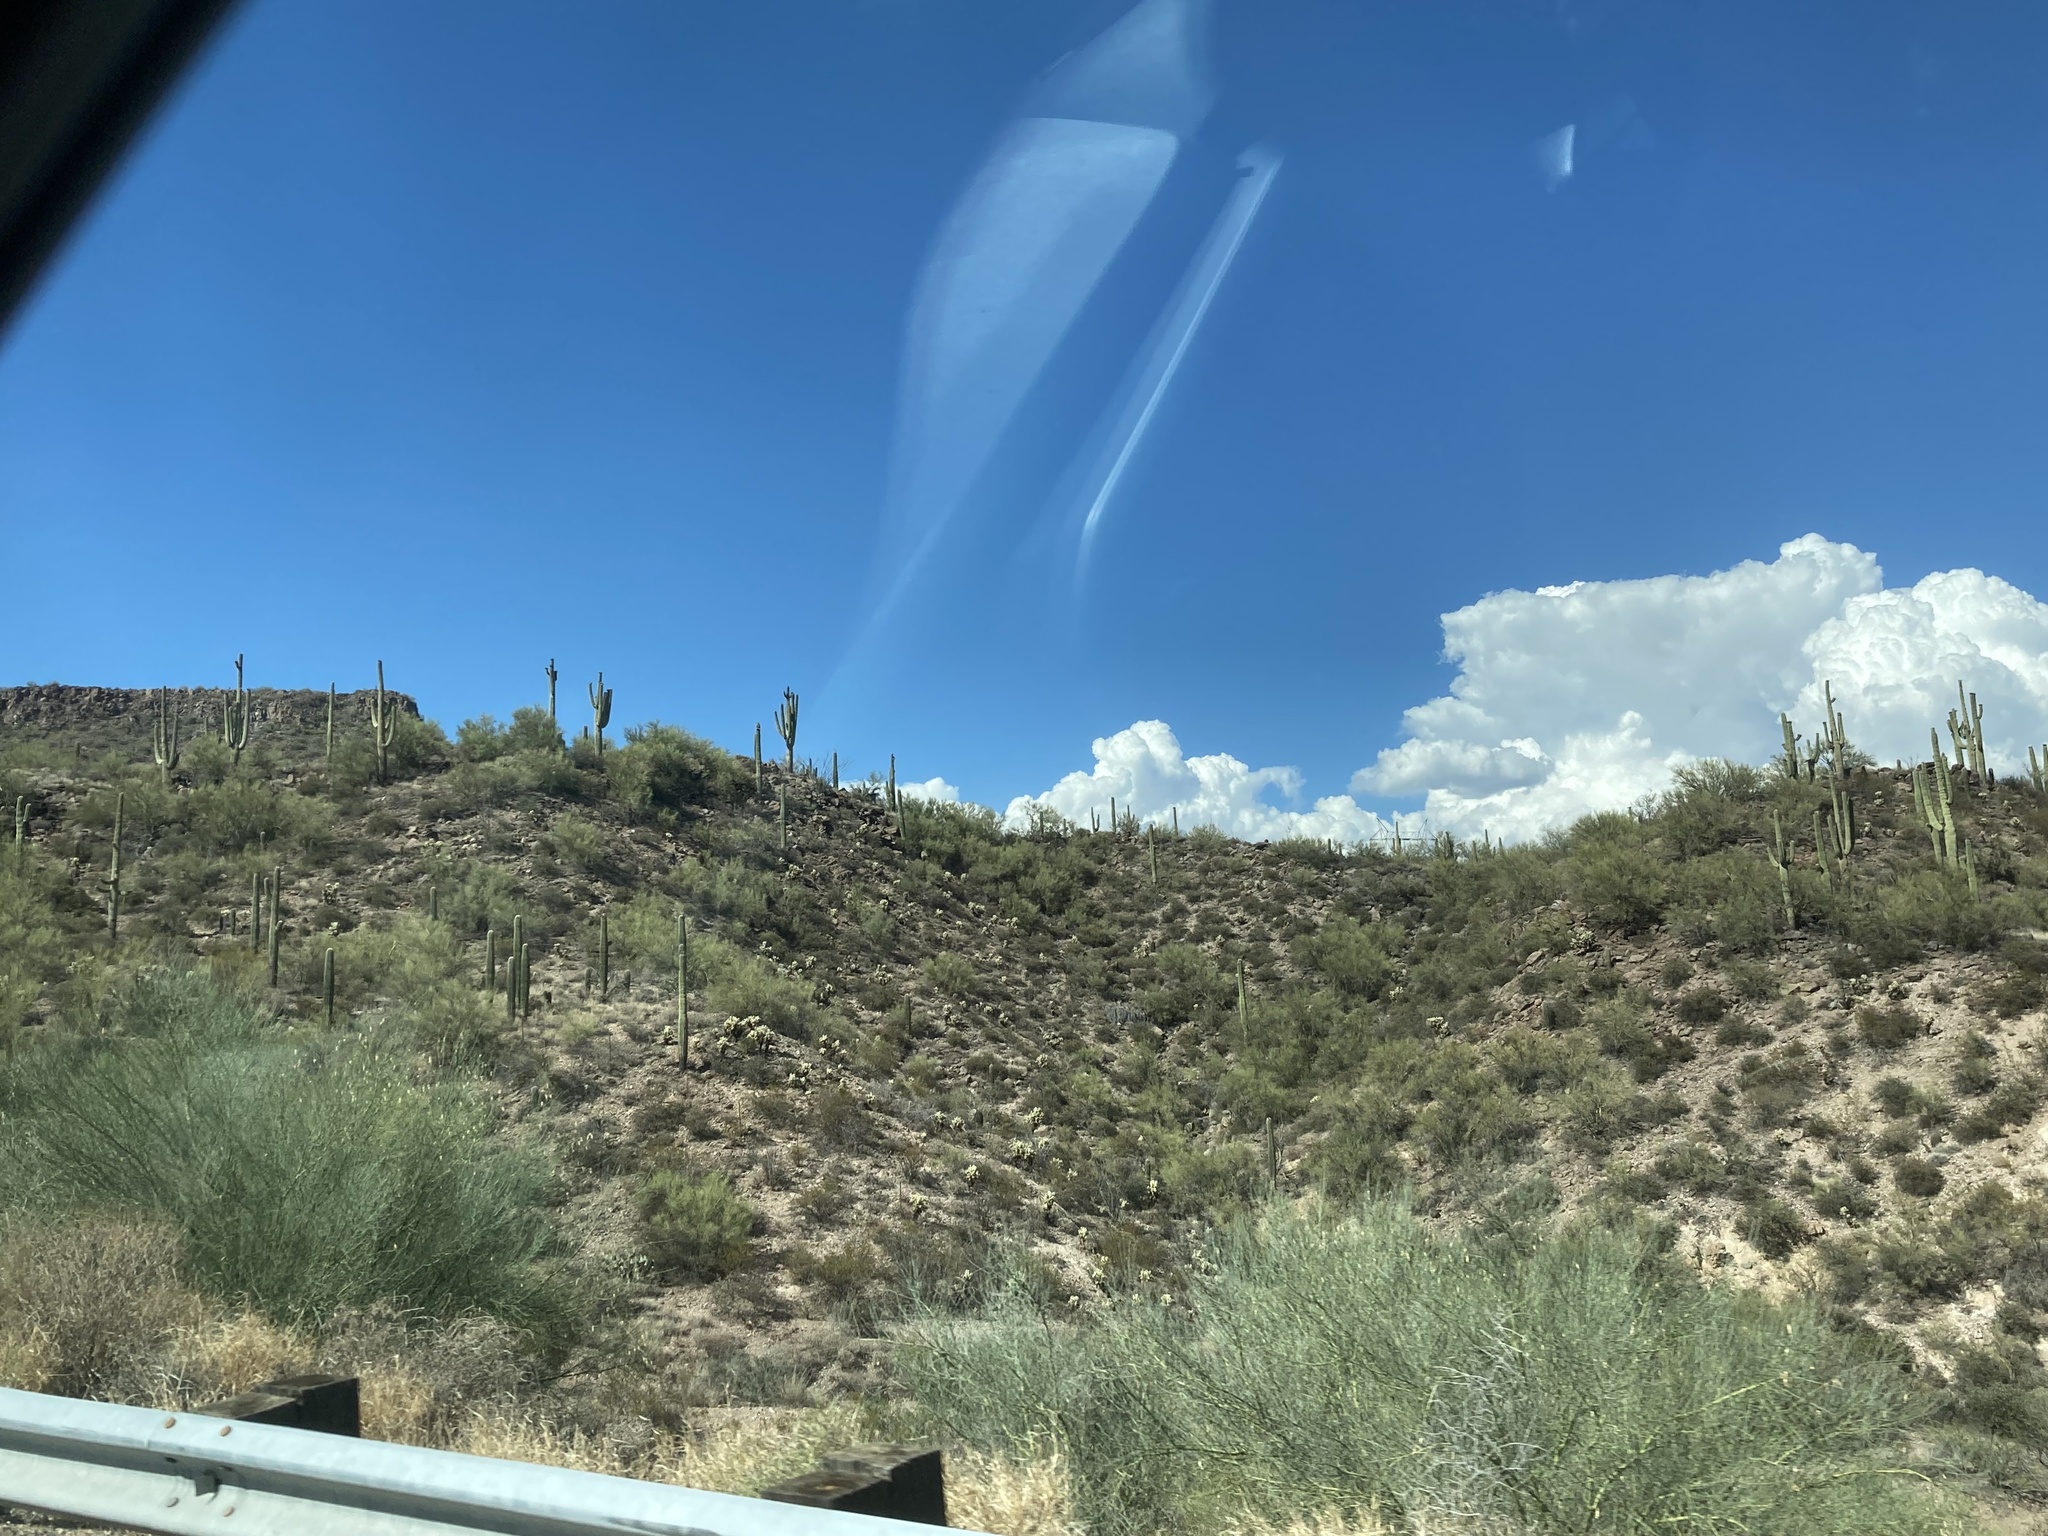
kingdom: Plantae
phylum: Tracheophyta
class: Magnoliopsida
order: Caryophyllales
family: Cactaceae
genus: Carnegiea
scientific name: Carnegiea gigantea
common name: Saguaro
